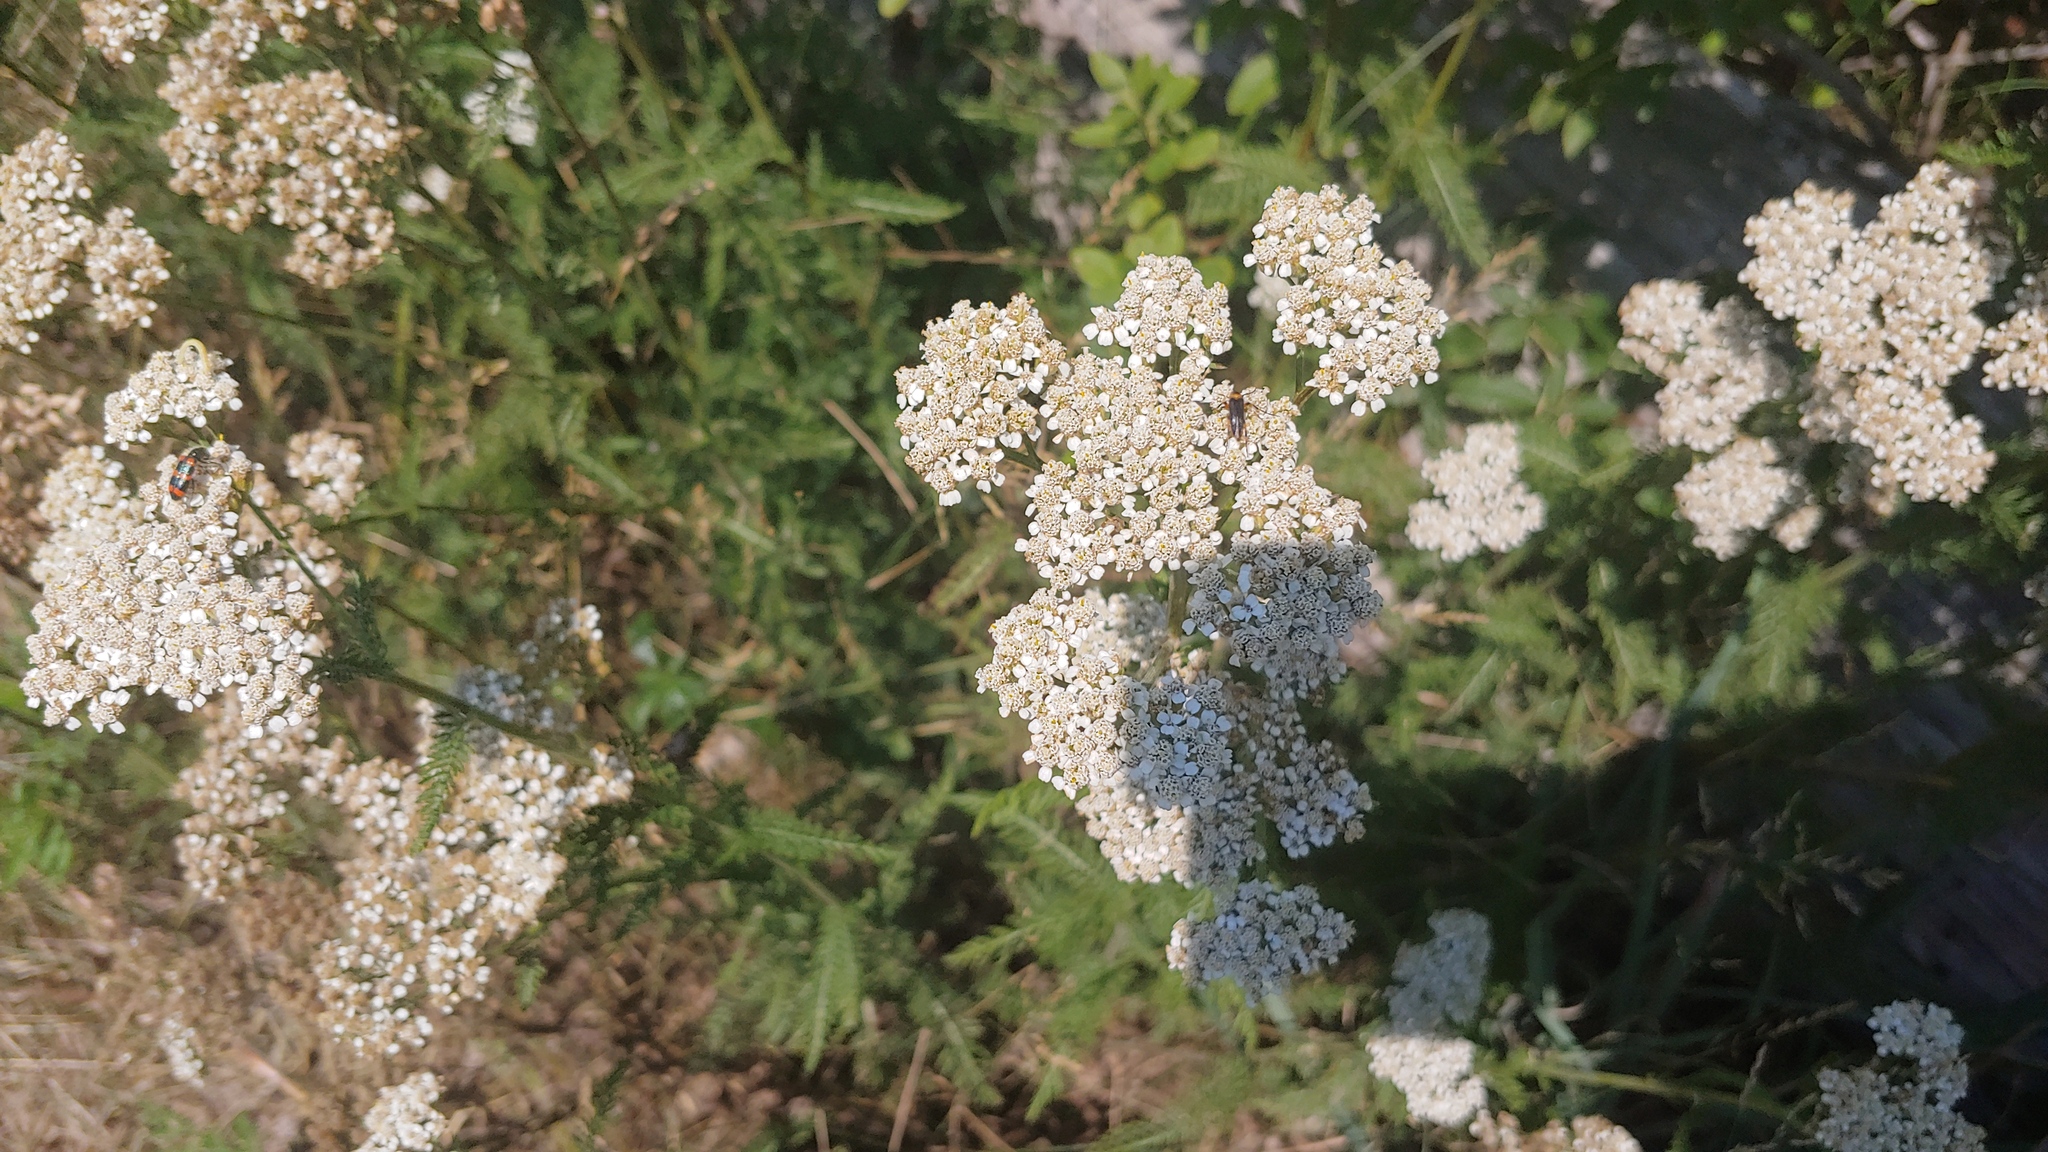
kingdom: Plantae
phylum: Tracheophyta
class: Magnoliopsida
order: Asterales
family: Asteraceae
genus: Achillea
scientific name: Achillea millefolium
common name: Yarrow
